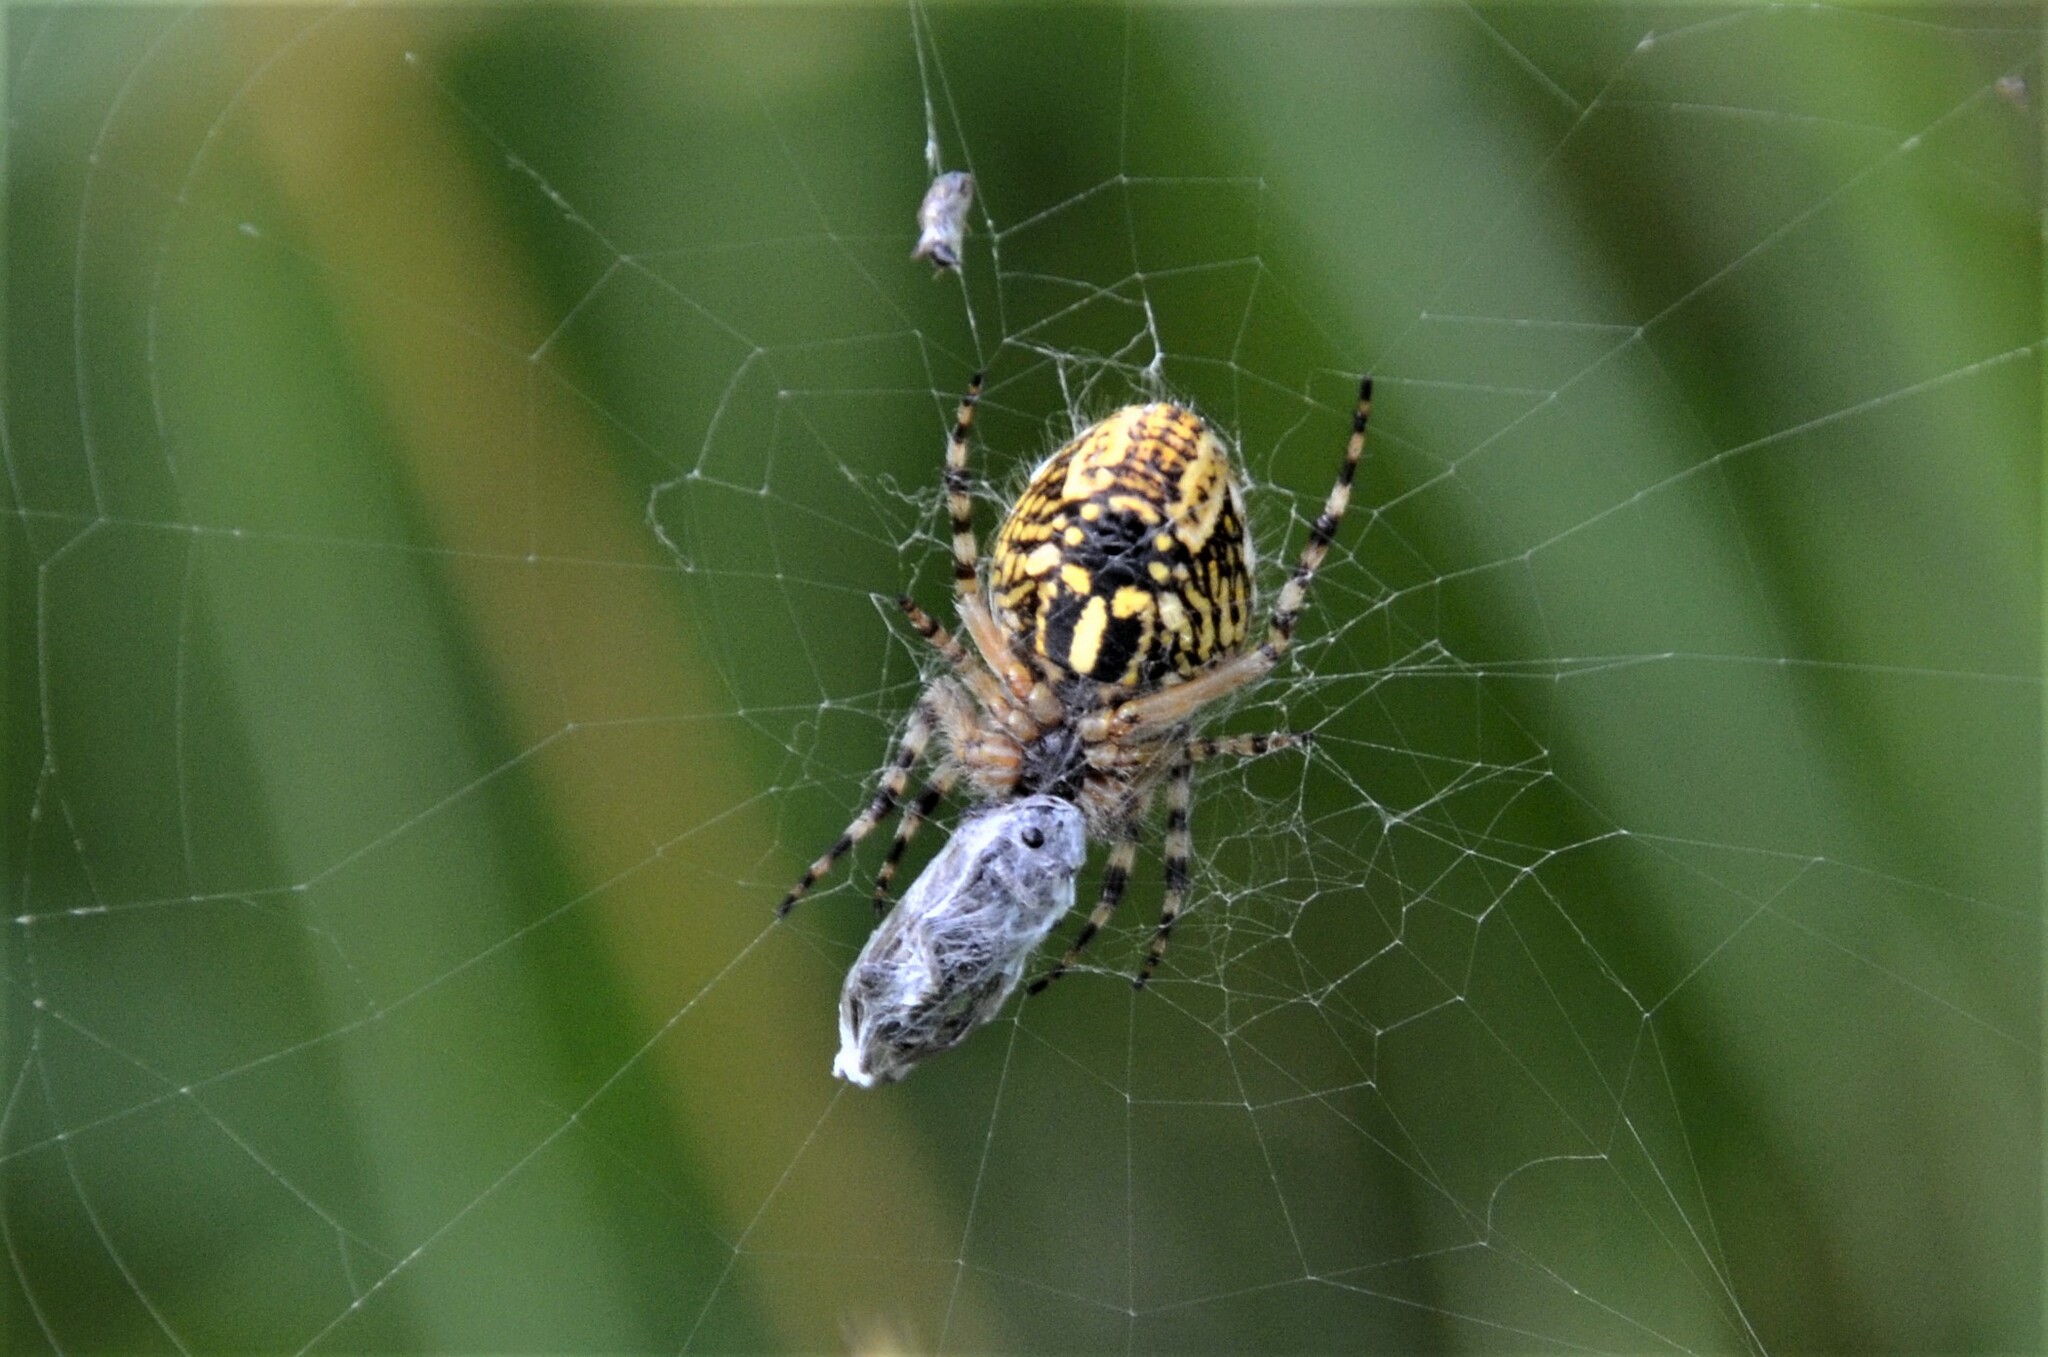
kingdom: Animalia
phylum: Arthropoda
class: Arachnida
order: Araneae
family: Araneidae
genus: Aculepeira
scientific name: Aculepeira ceropegia
